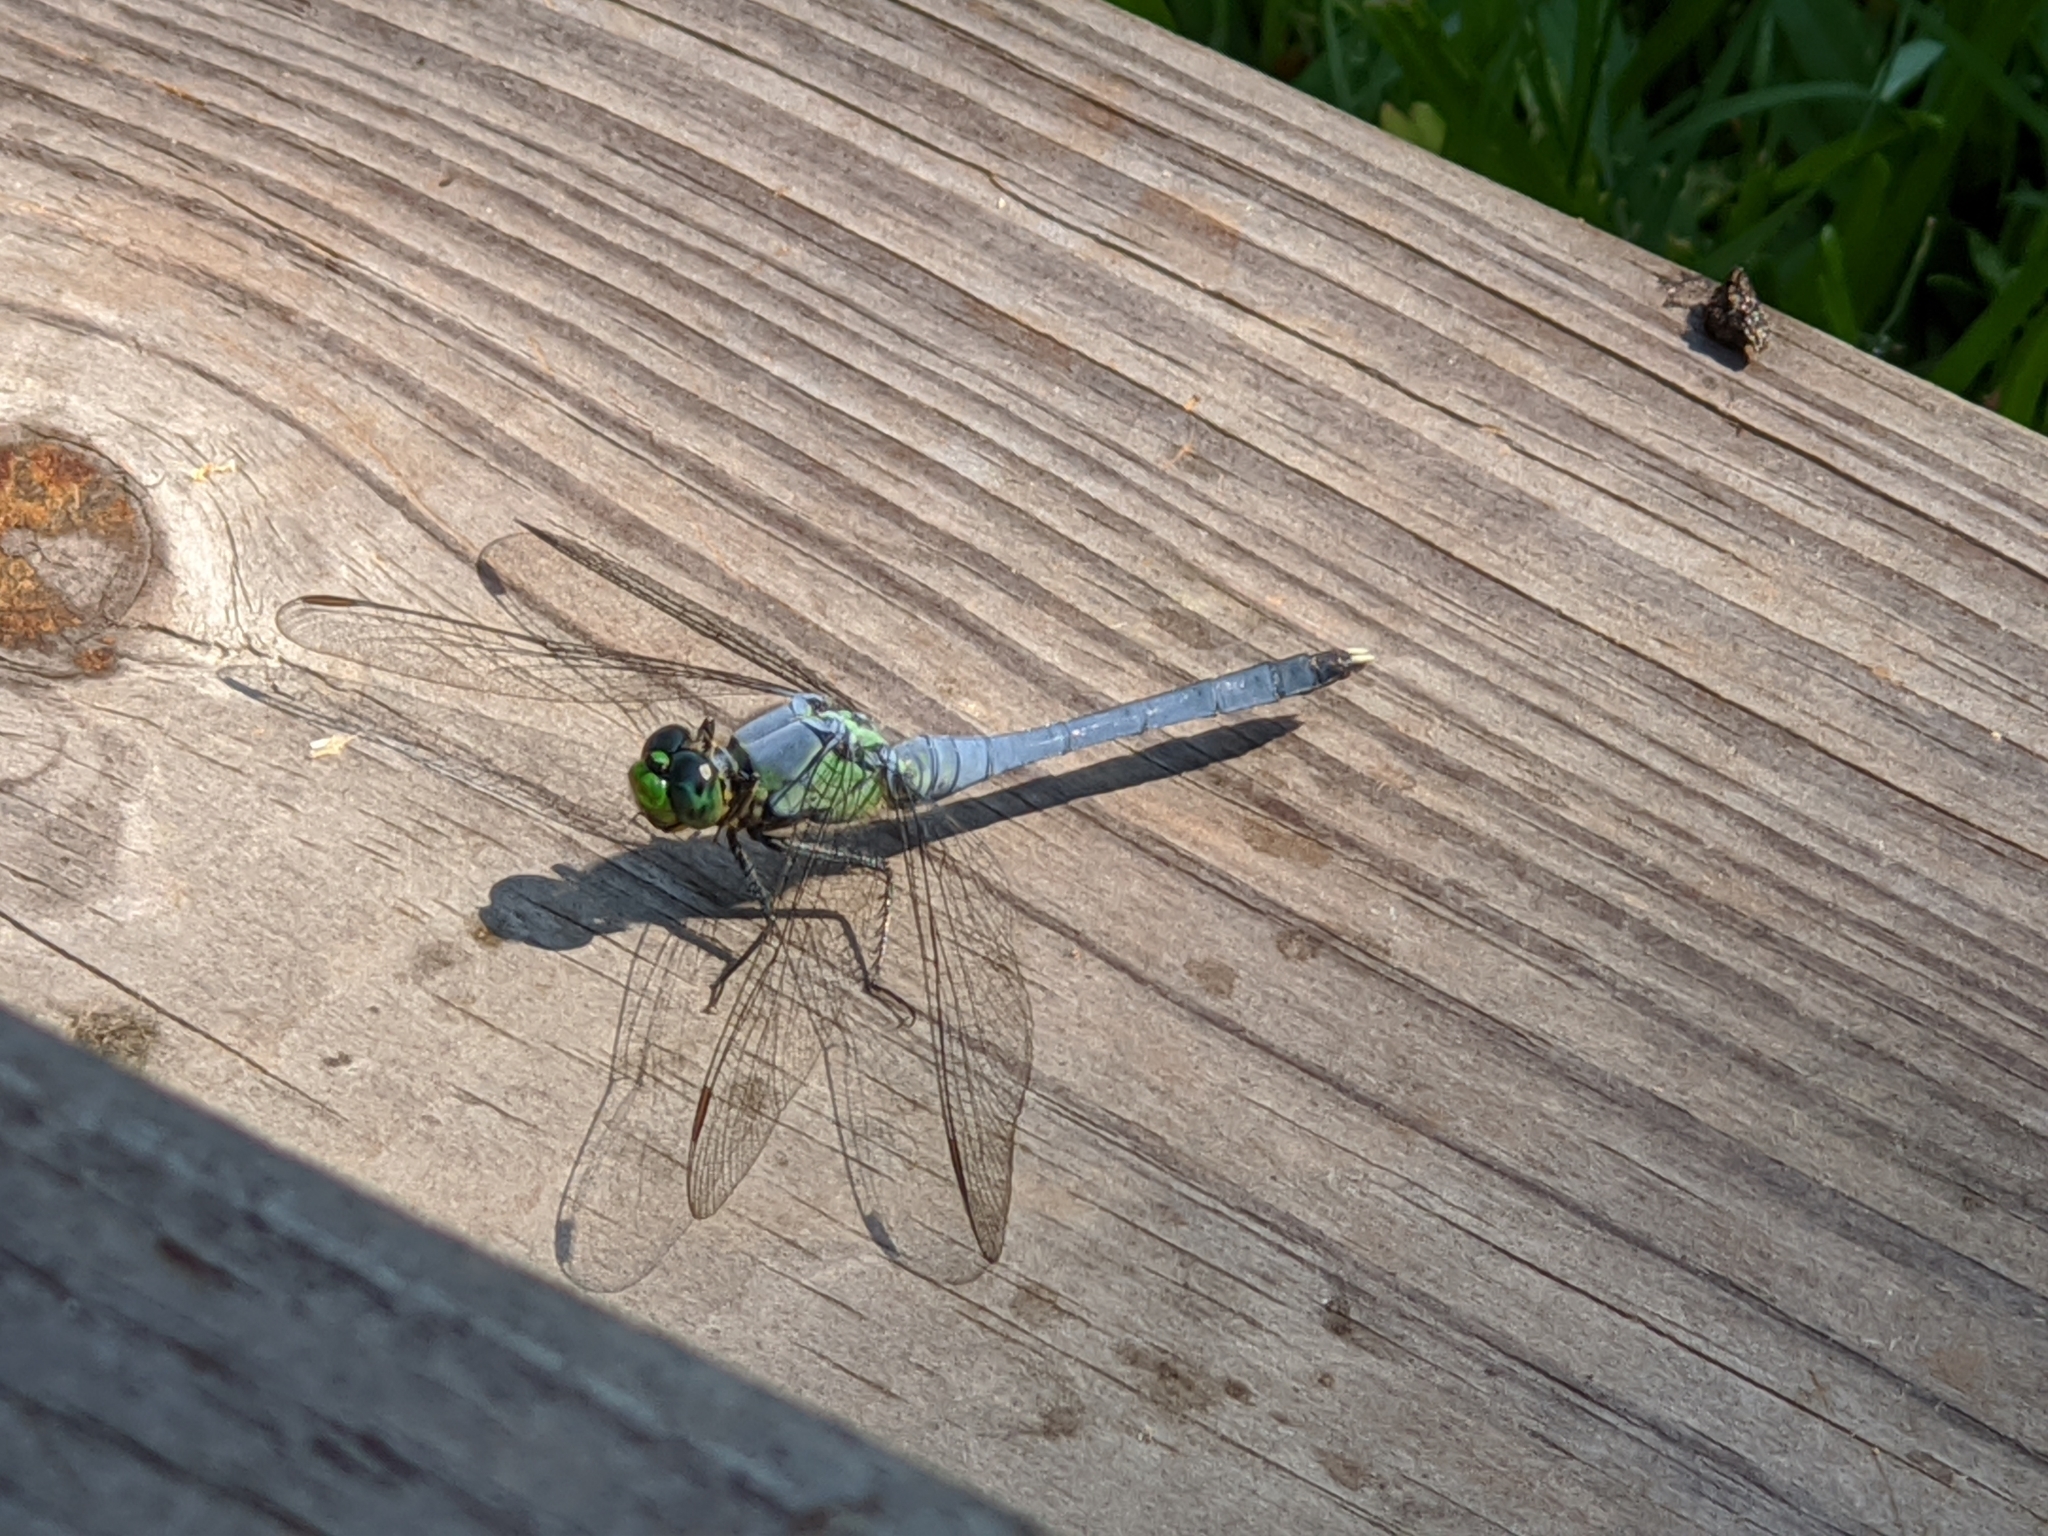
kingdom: Animalia
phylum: Arthropoda
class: Insecta
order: Odonata
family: Libellulidae
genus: Erythemis
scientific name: Erythemis simplicicollis
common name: Eastern pondhawk
